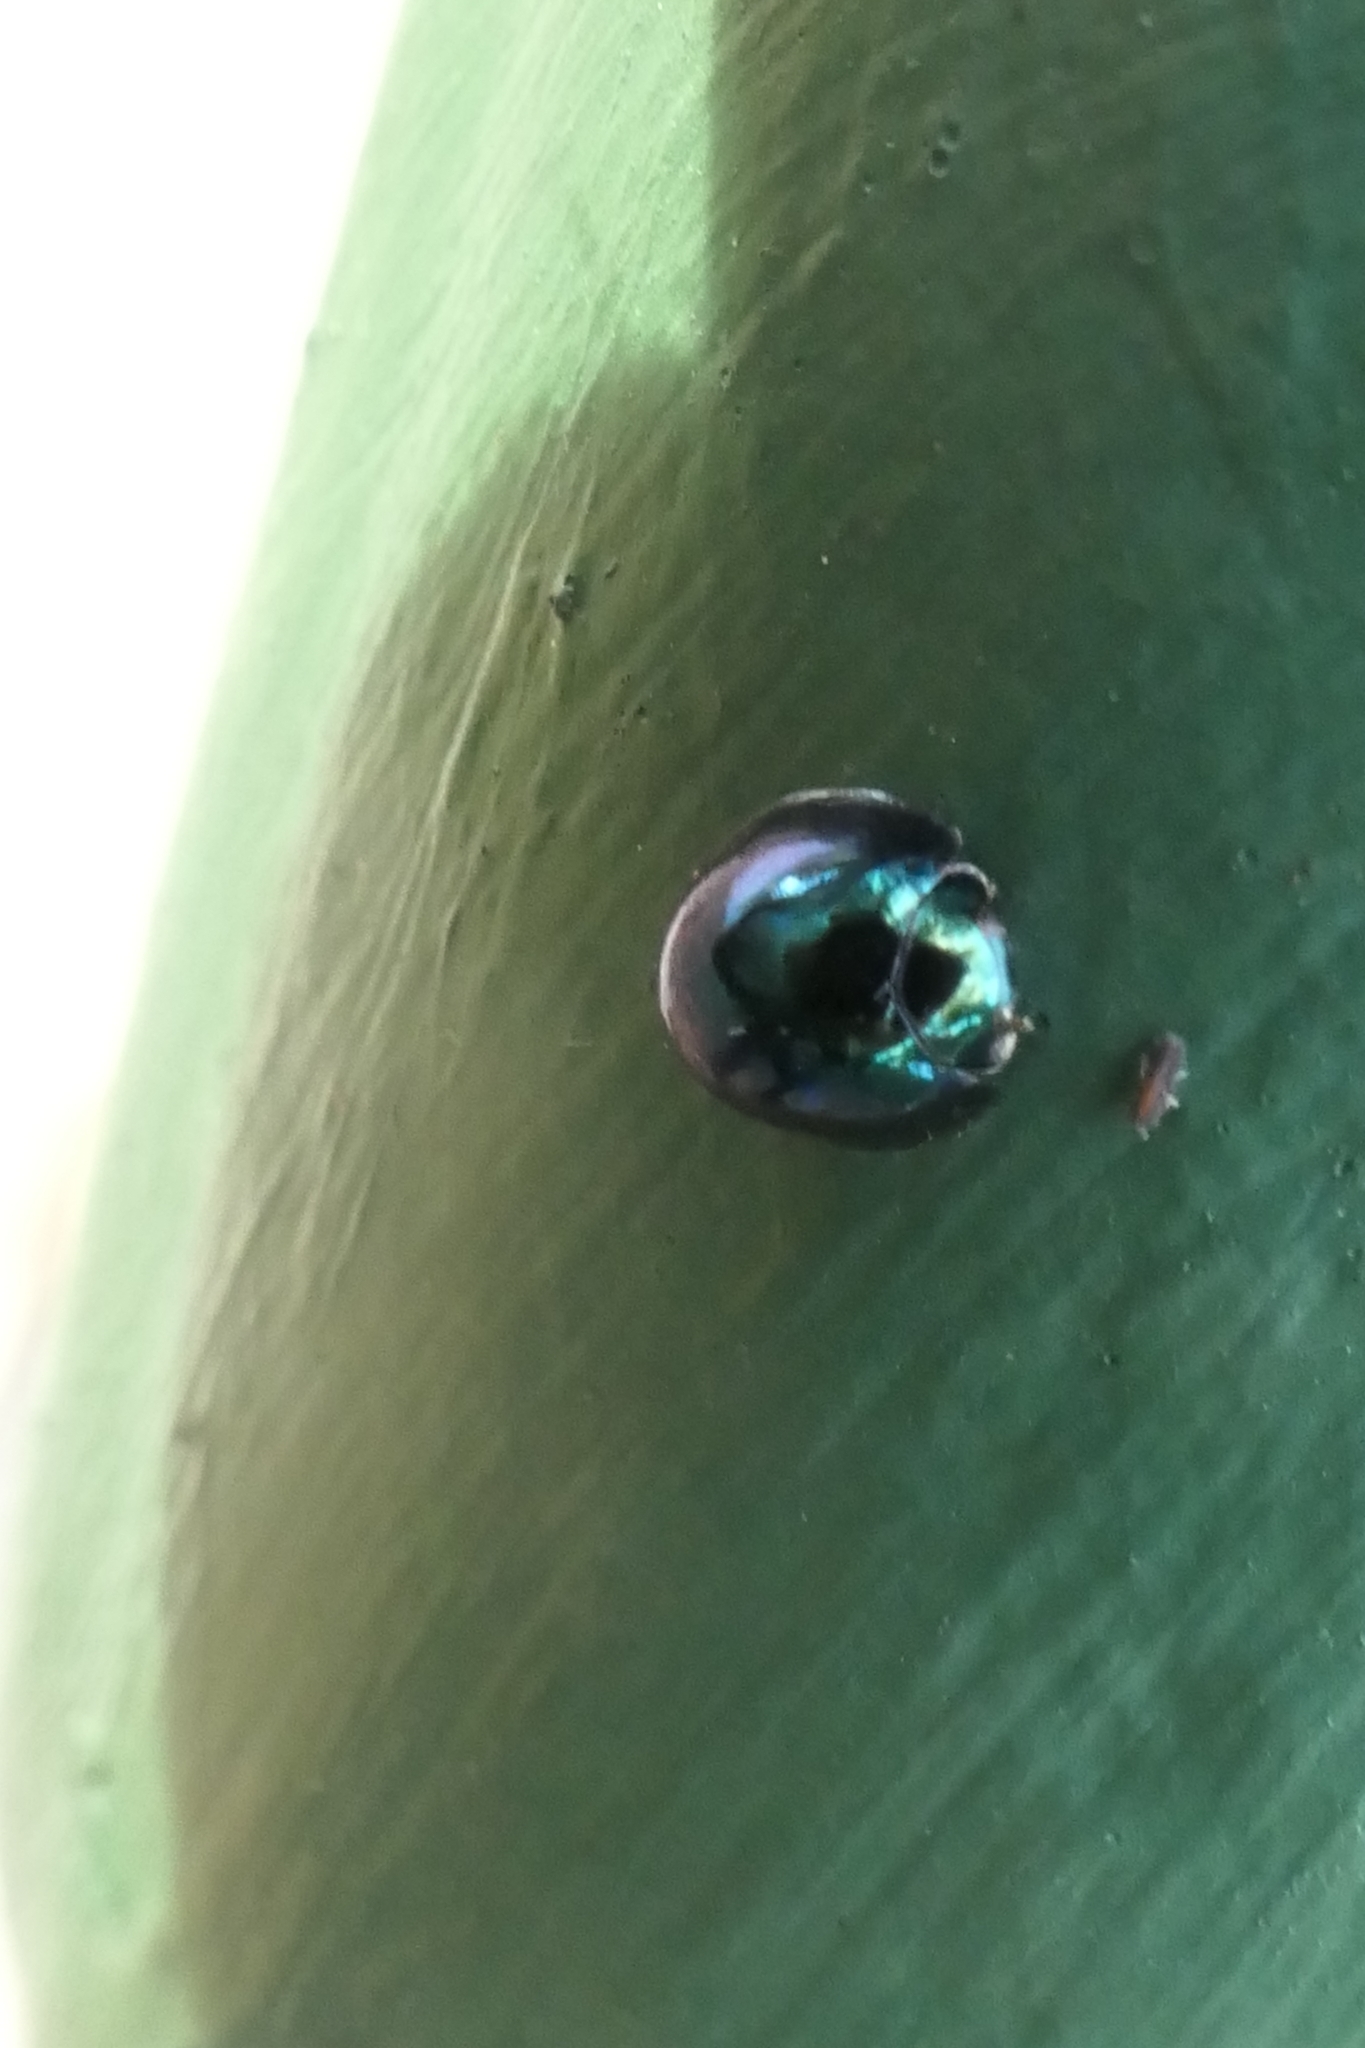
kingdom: Animalia
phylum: Arthropoda
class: Insecta
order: Coleoptera
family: Coccinellidae
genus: Halmus
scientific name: Halmus chalybeus
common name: Steel blue ladybird beetle
